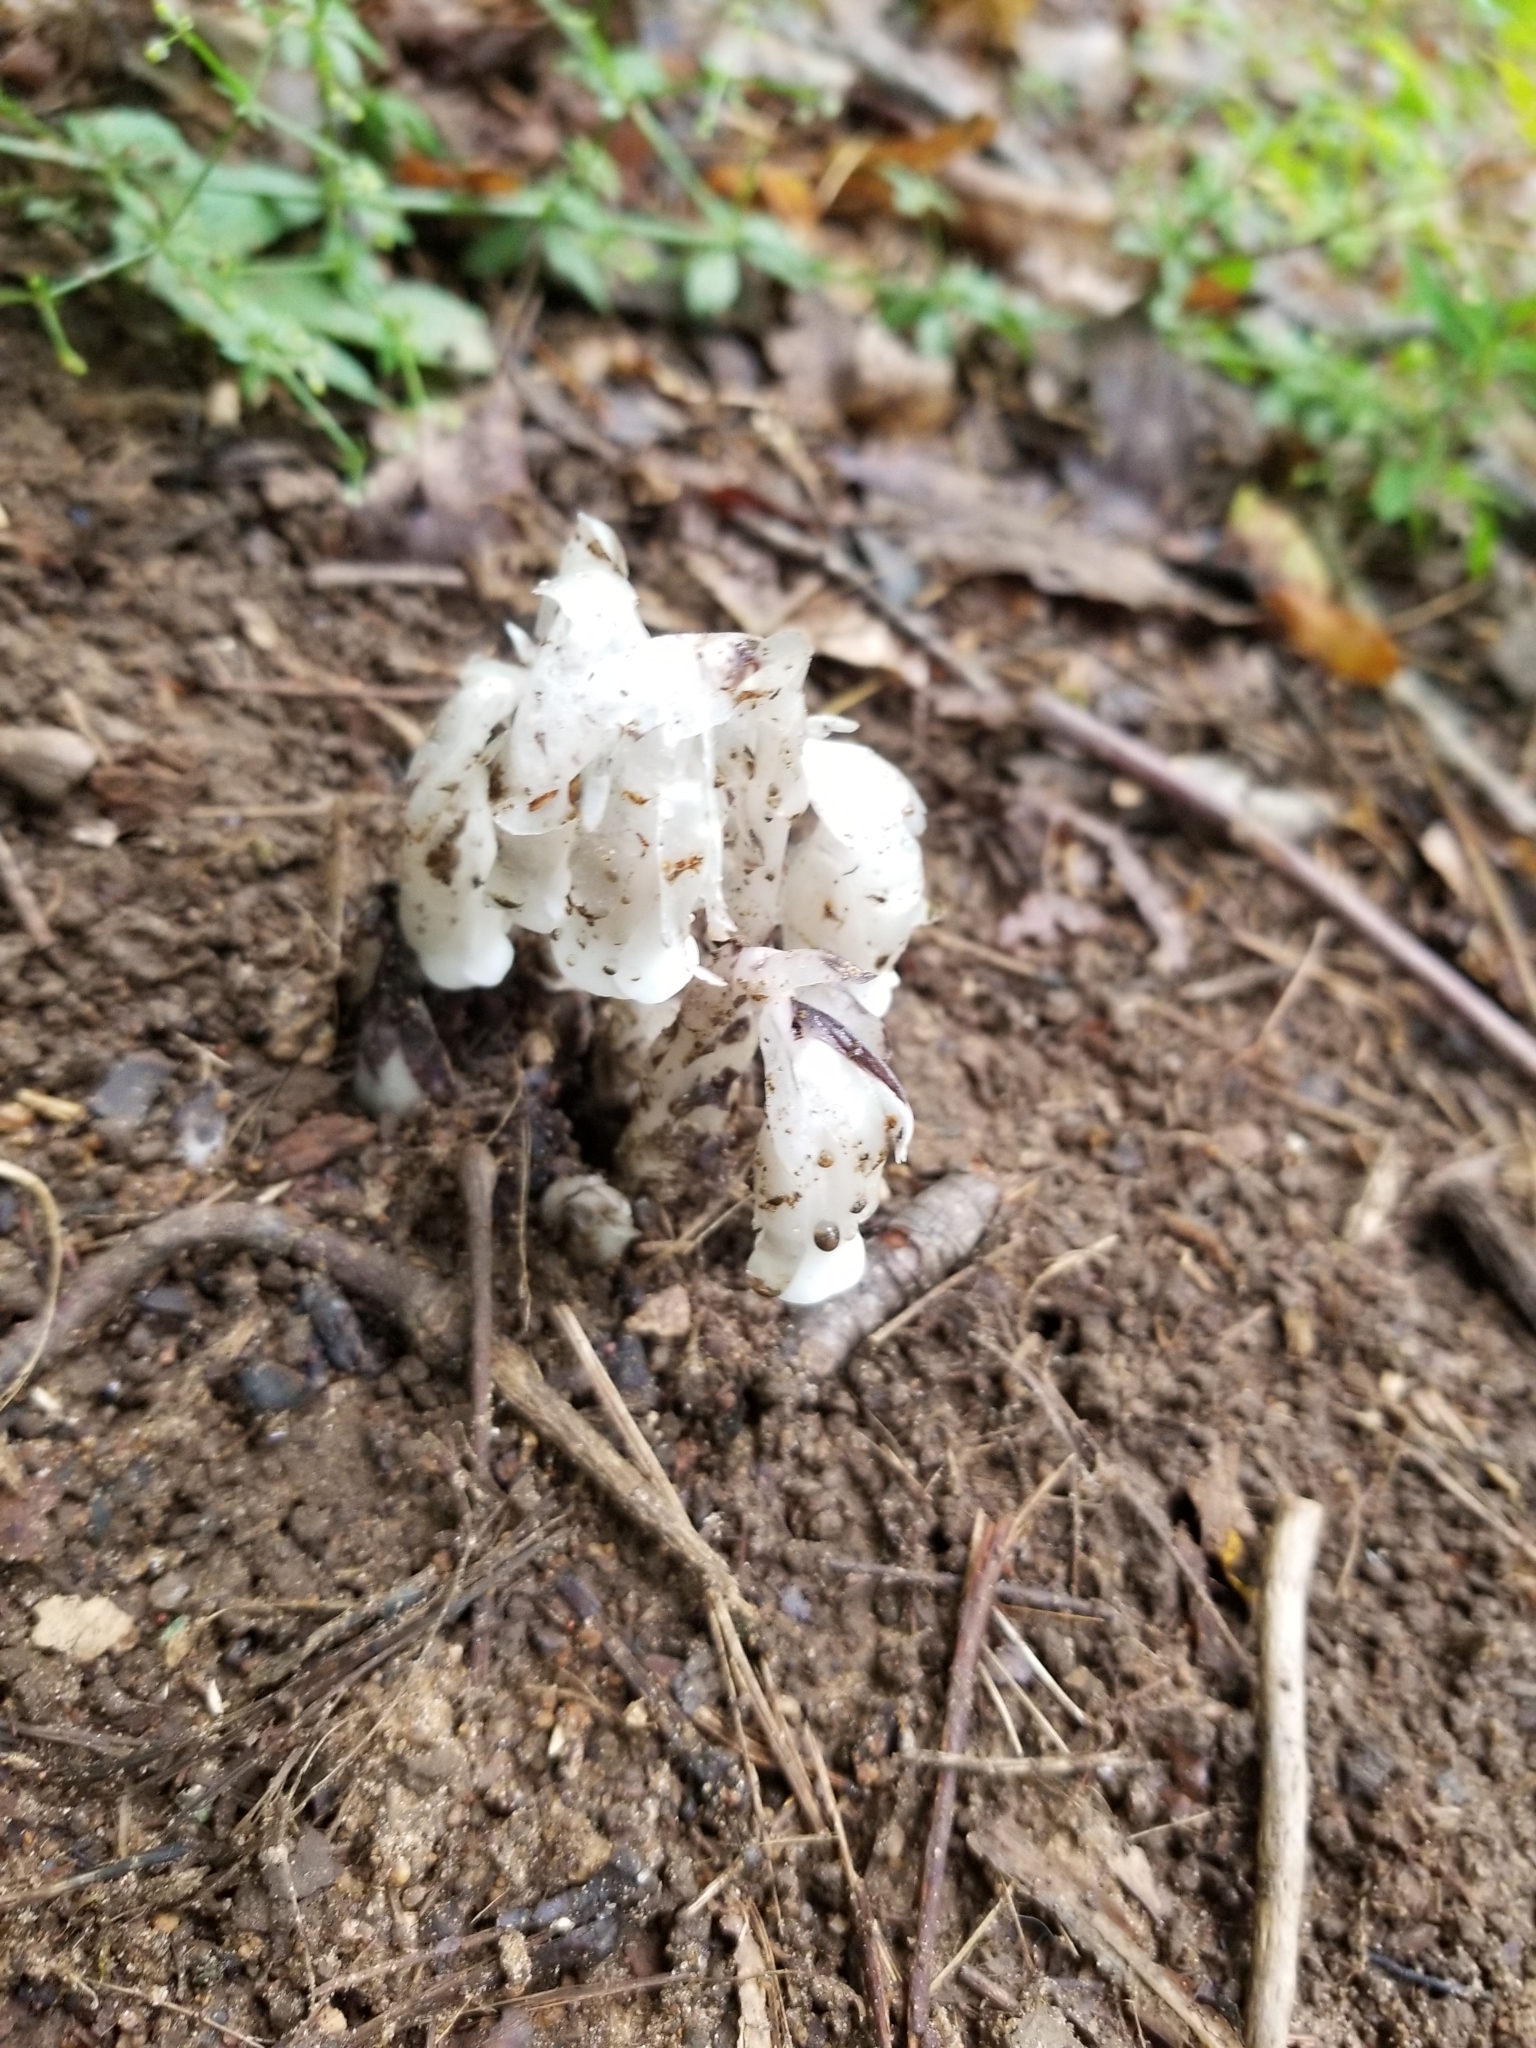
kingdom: Plantae
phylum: Tracheophyta
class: Magnoliopsida
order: Ericales
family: Ericaceae
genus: Monotropa
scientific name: Monotropa uniflora
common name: Convulsion root
